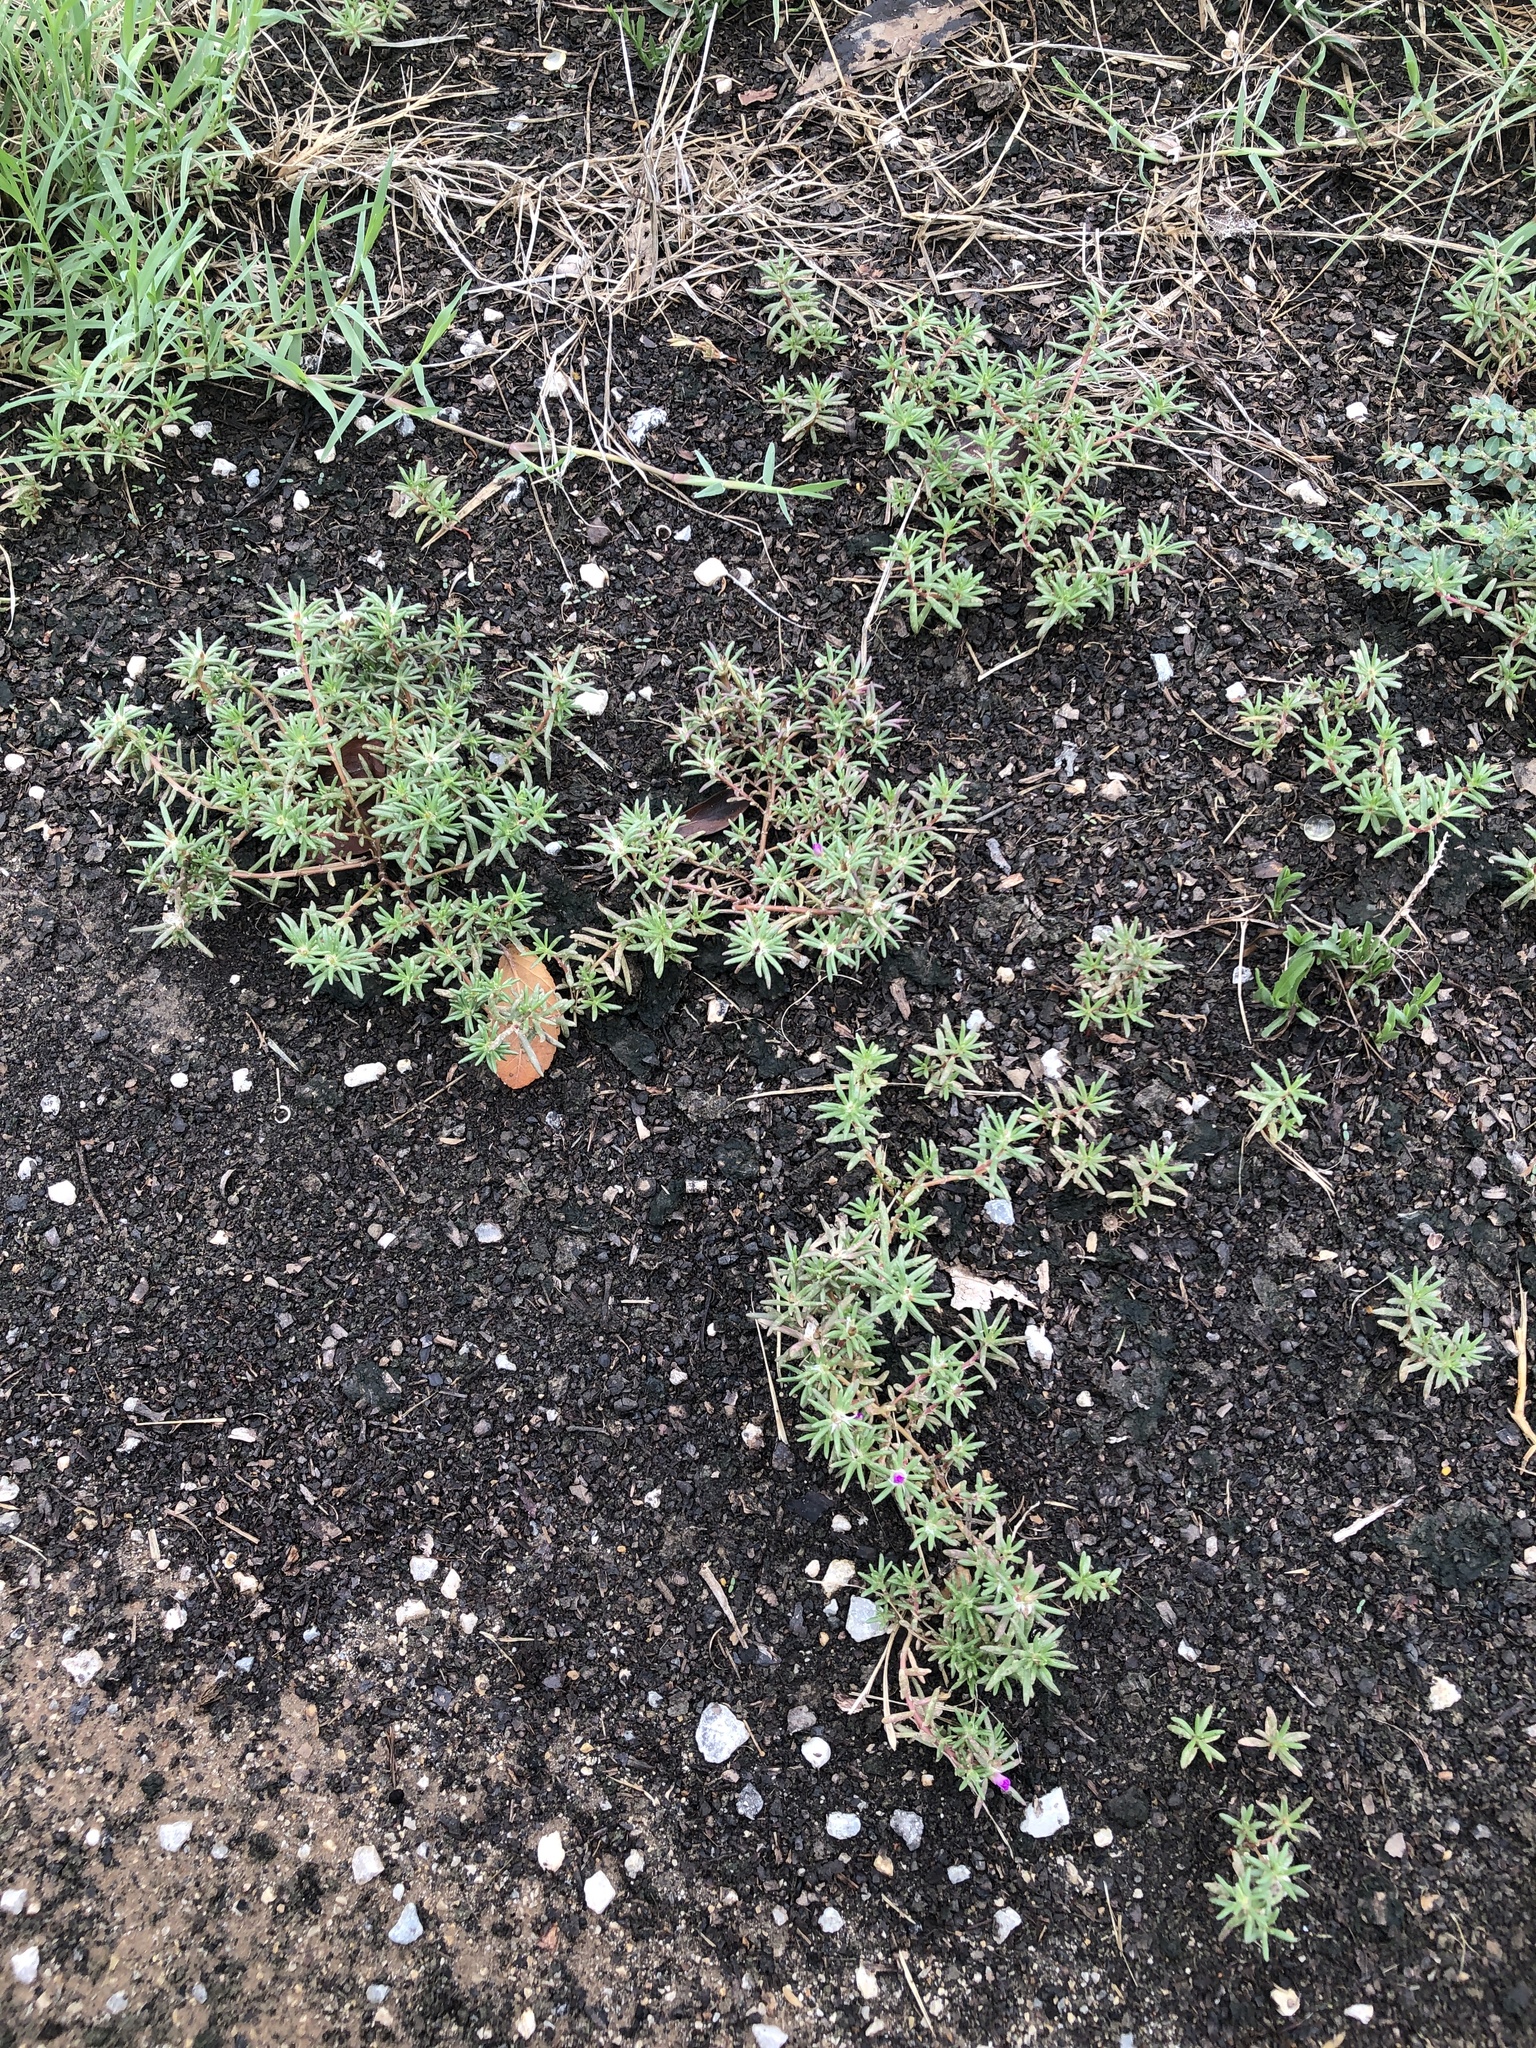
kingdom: Plantae
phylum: Tracheophyta
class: Magnoliopsida
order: Caryophyllales
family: Portulacaceae
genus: Portulaca
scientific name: Portulaca pilosa
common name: Kiss me quick
